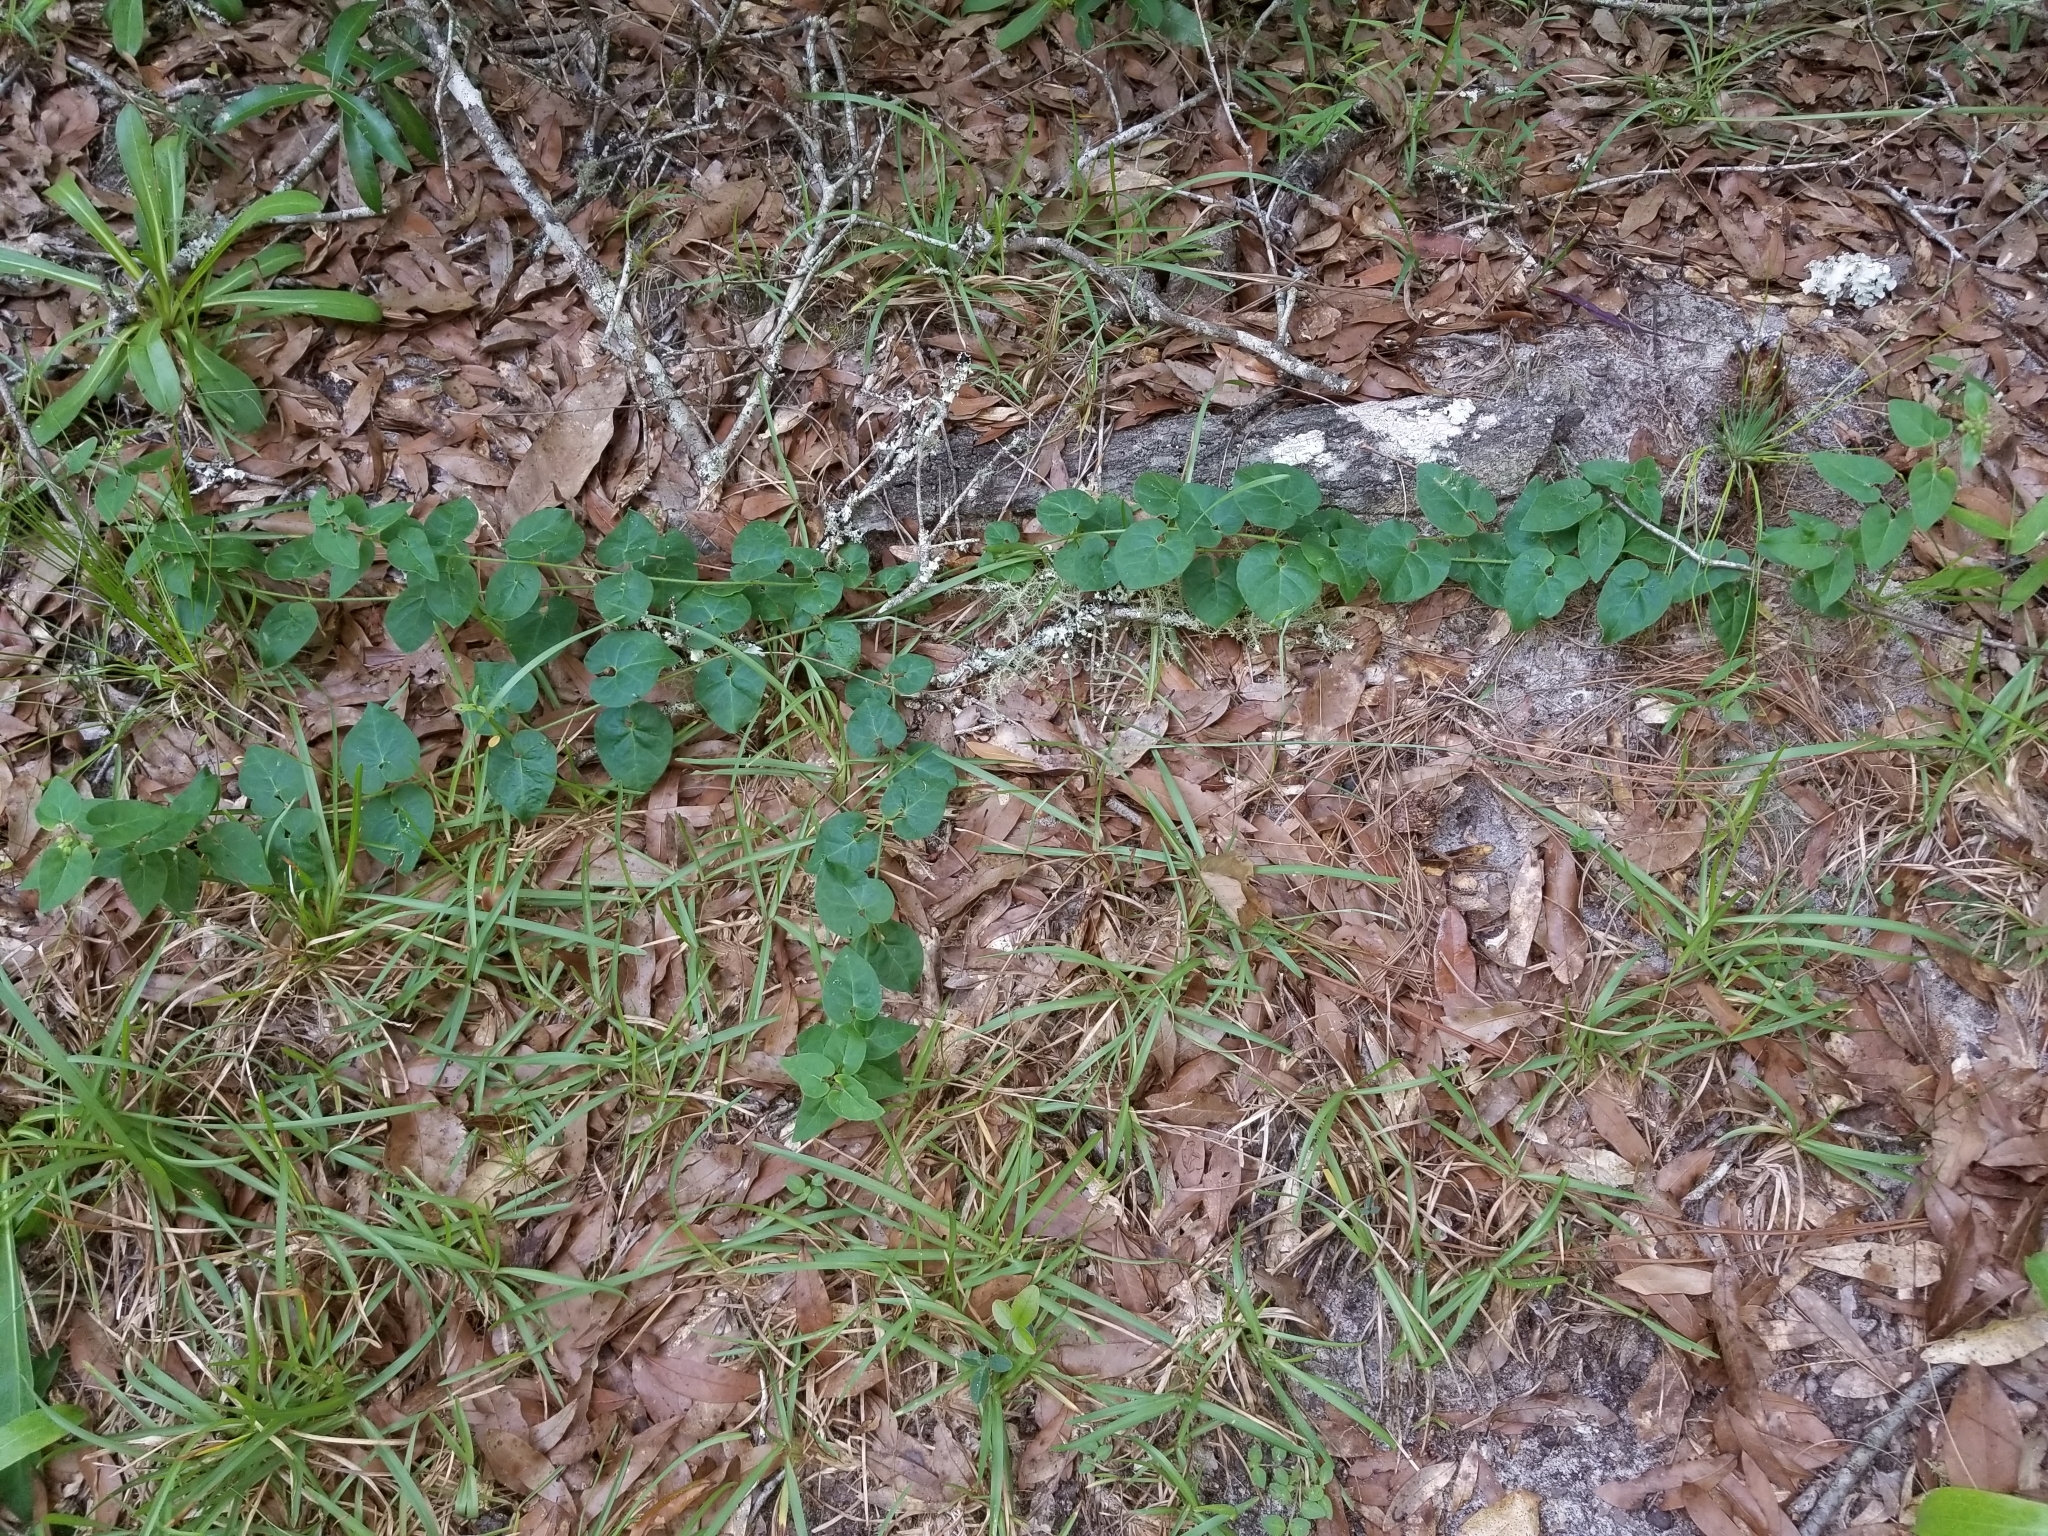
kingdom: Plantae
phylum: Tracheophyta
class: Magnoliopsida
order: Gentianales
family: Apocynaceae
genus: Chthamalia
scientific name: Chthamalia pubiflora
